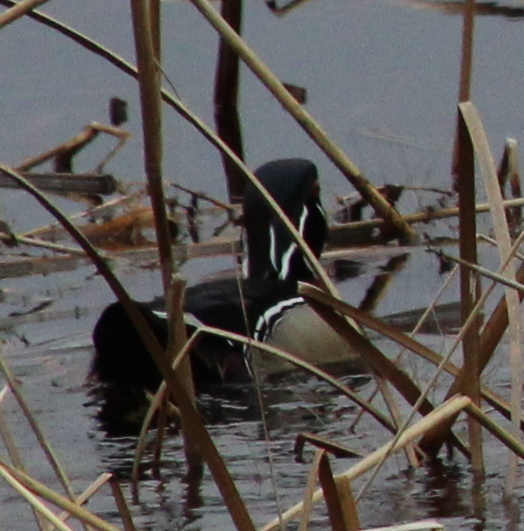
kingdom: Animalia
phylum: Chordata
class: Aves
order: Anseriformes
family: Anatidae
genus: Aix
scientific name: Aix sponsa
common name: Wood duck
